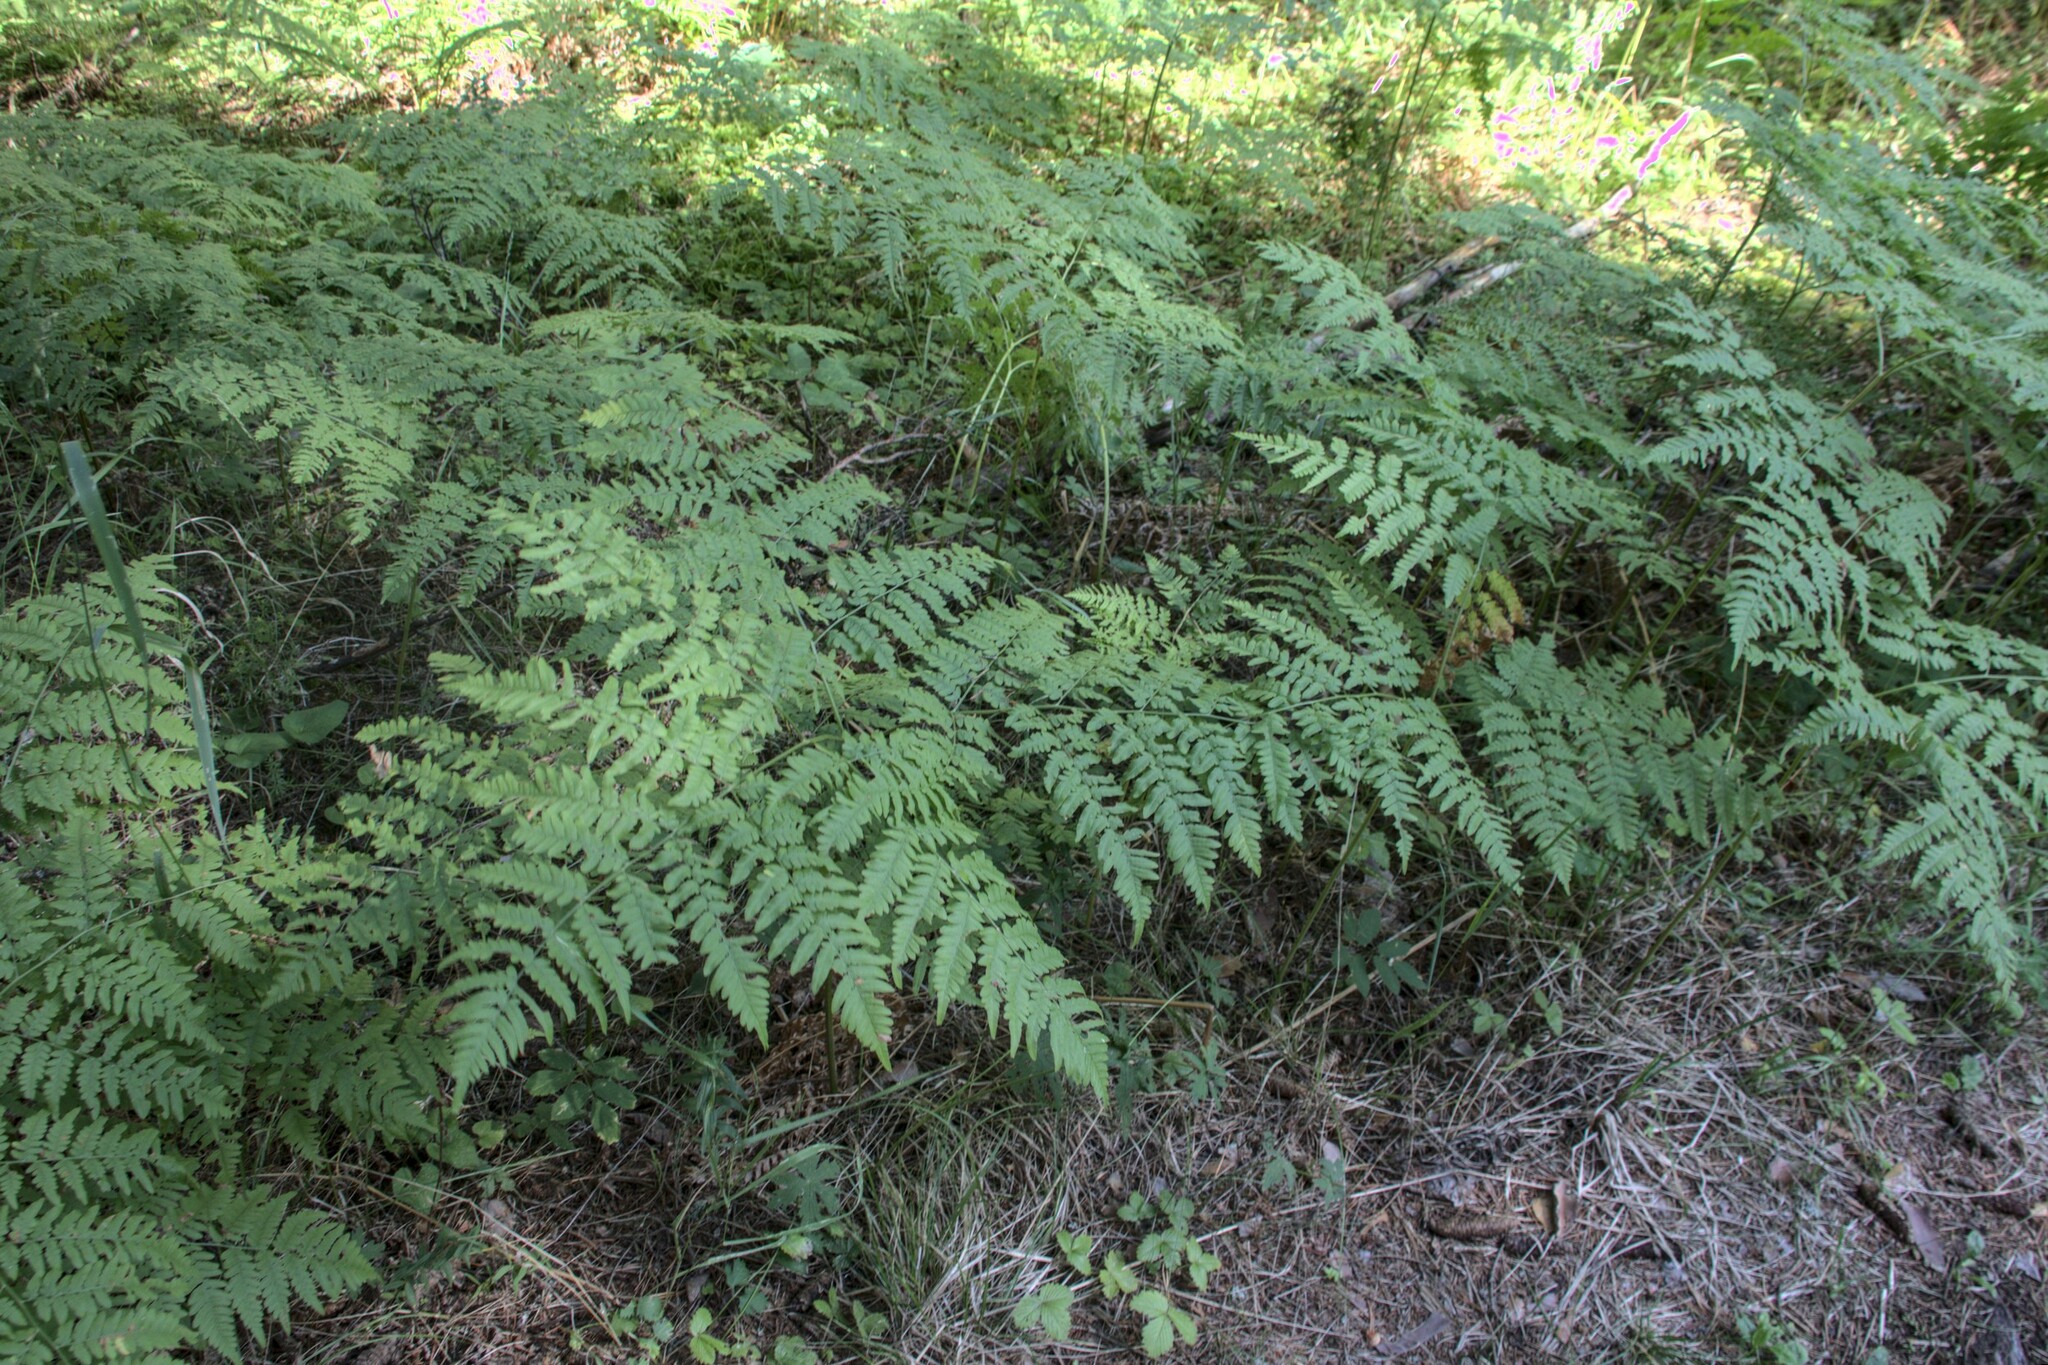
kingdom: Plantae
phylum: Tracheophyta
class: Polypodiopsida
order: Polypodiales
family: Dennstaedtiaceae
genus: Pteridium
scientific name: Pteridium aquilinum
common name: Bracken
